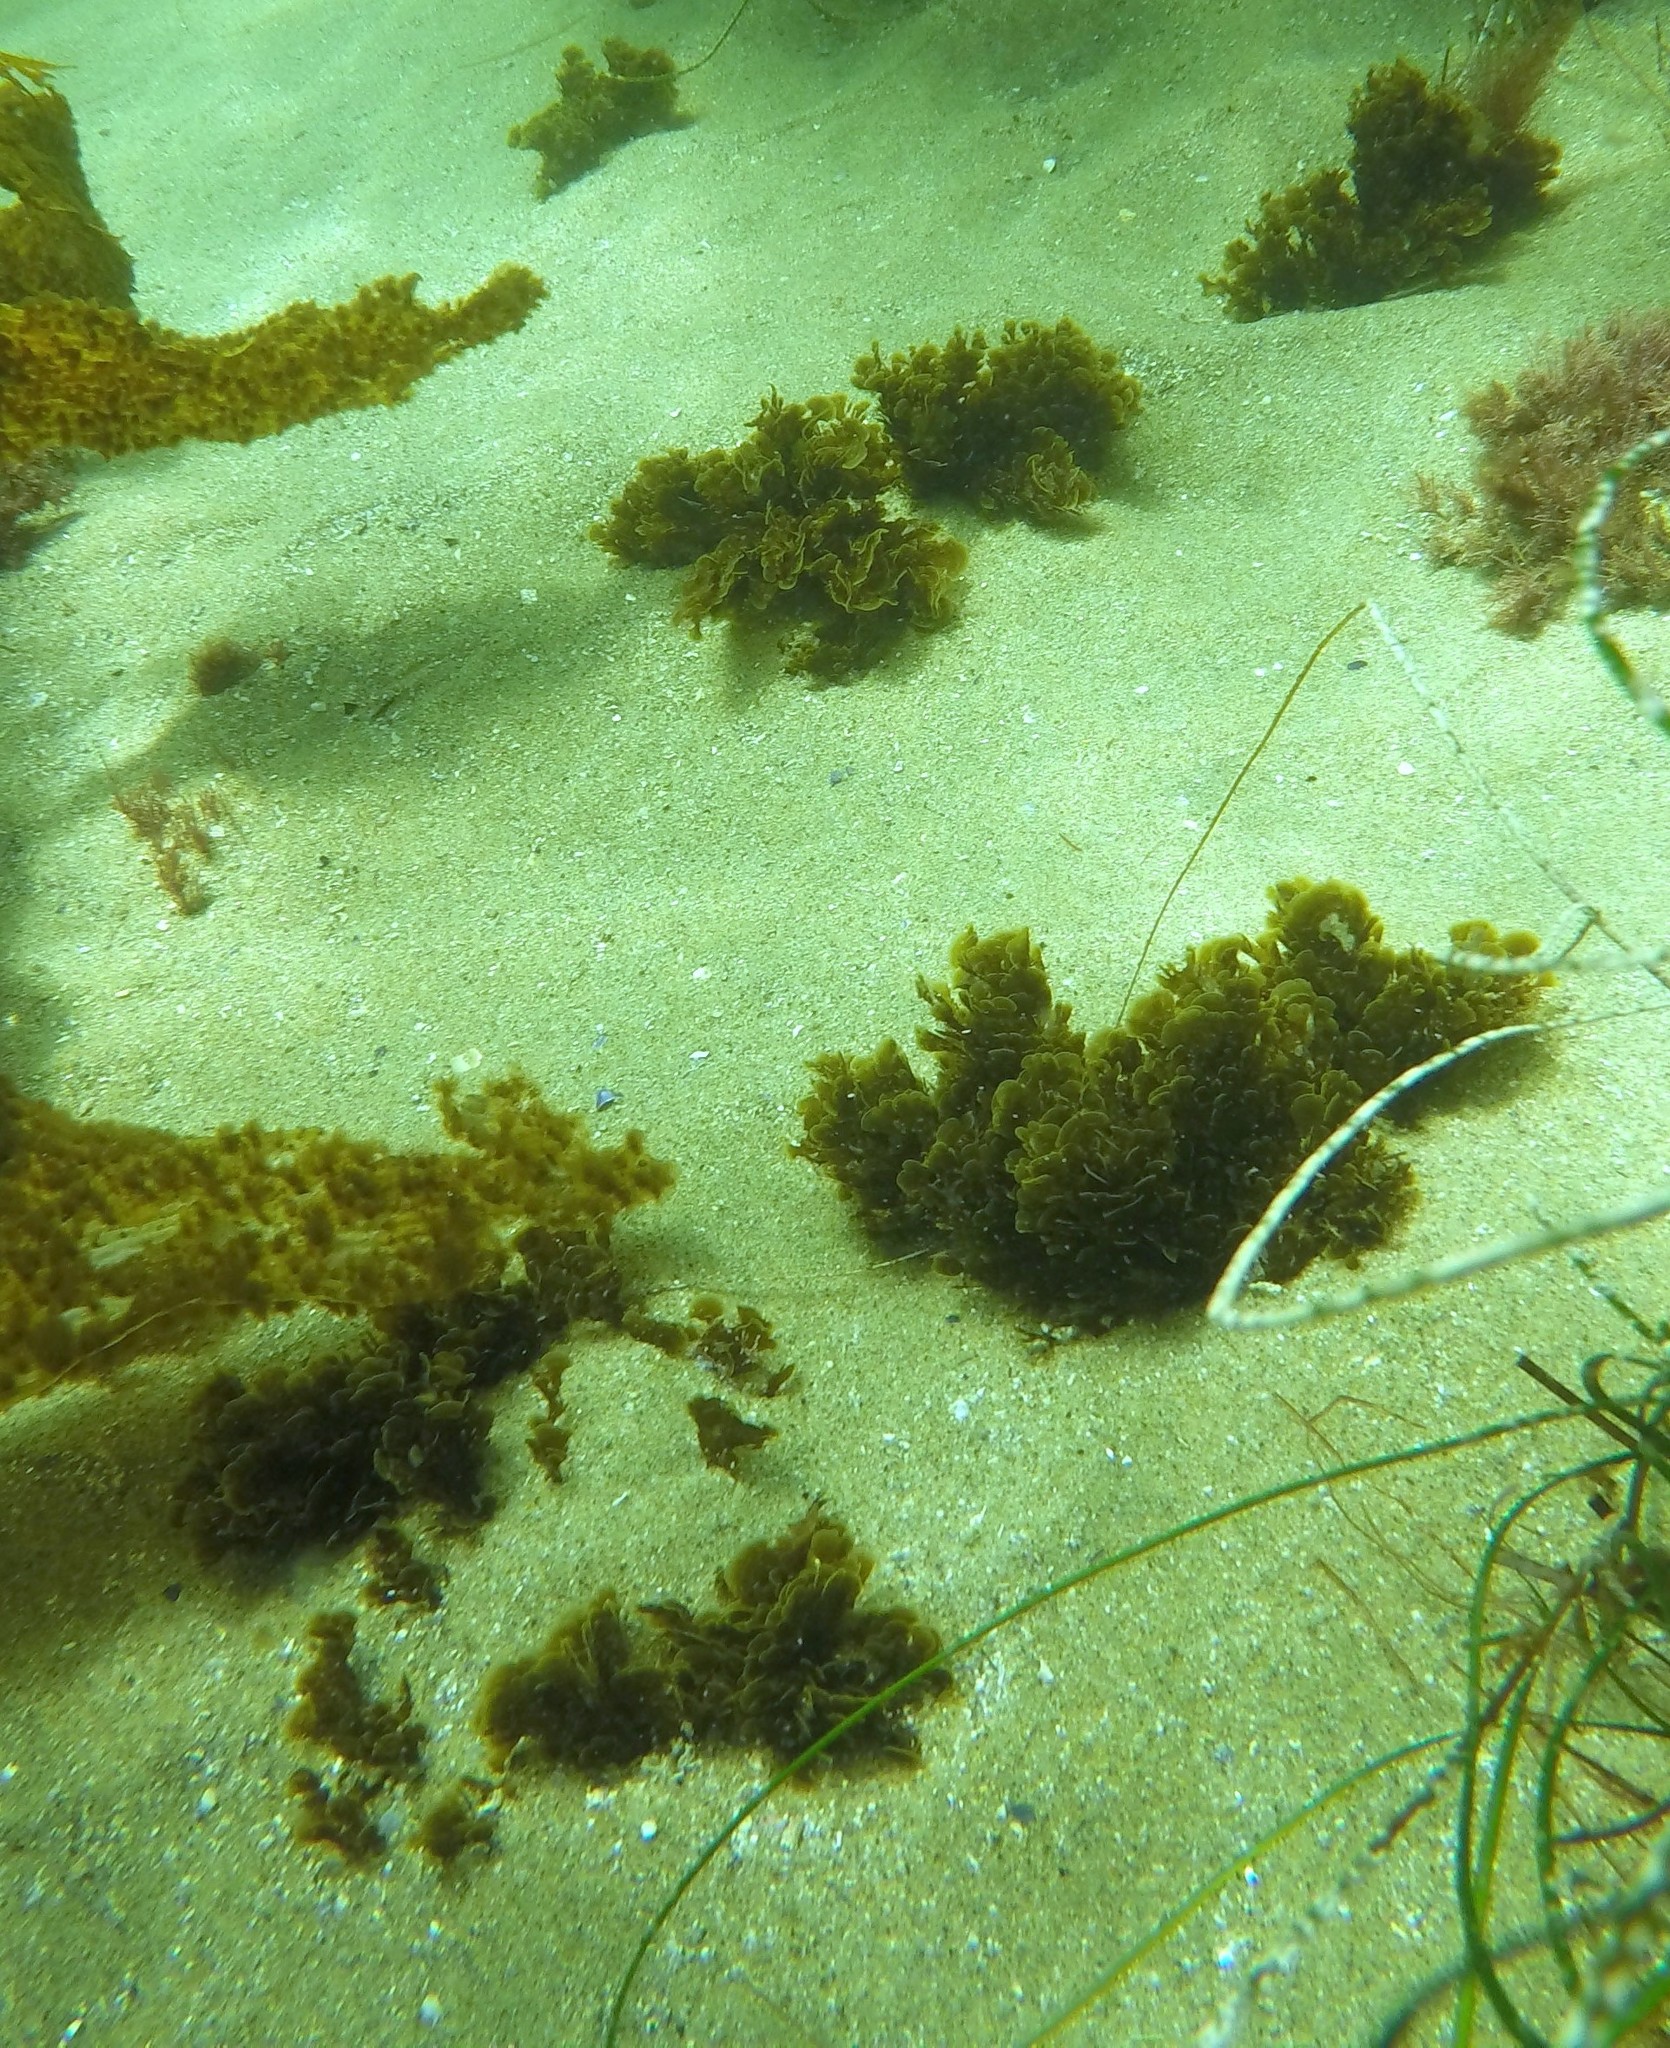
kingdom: Chromista
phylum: Ochrophyta
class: Phaeophyceae
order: Dictyotales
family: Dictyotaceae
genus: Zonaria
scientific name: Zonaria farlowii
